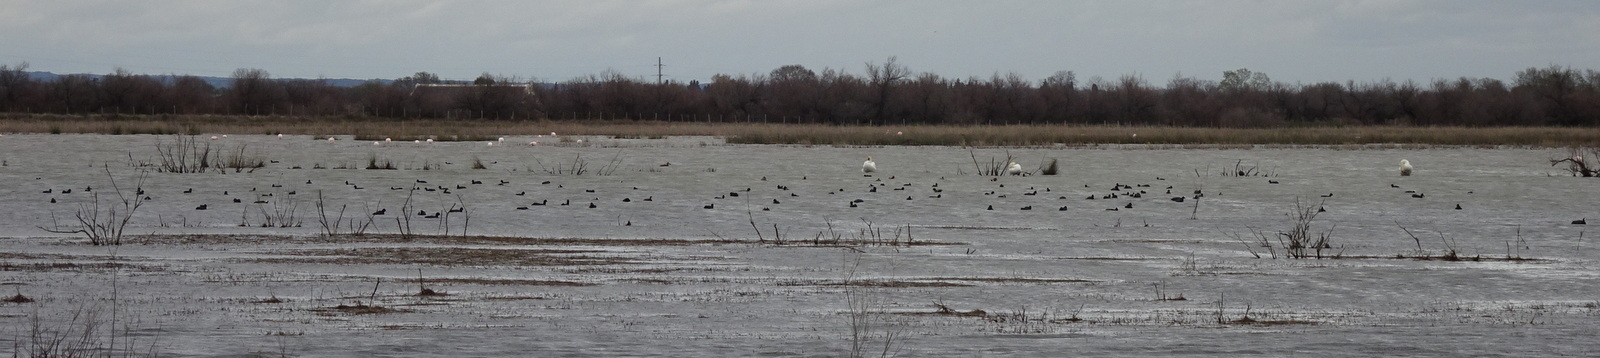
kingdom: Animalia
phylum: Chordata
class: Aves
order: Gruiformes
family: Rallidae
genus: Fulica
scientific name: Fulica atra
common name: Eurasian coot
